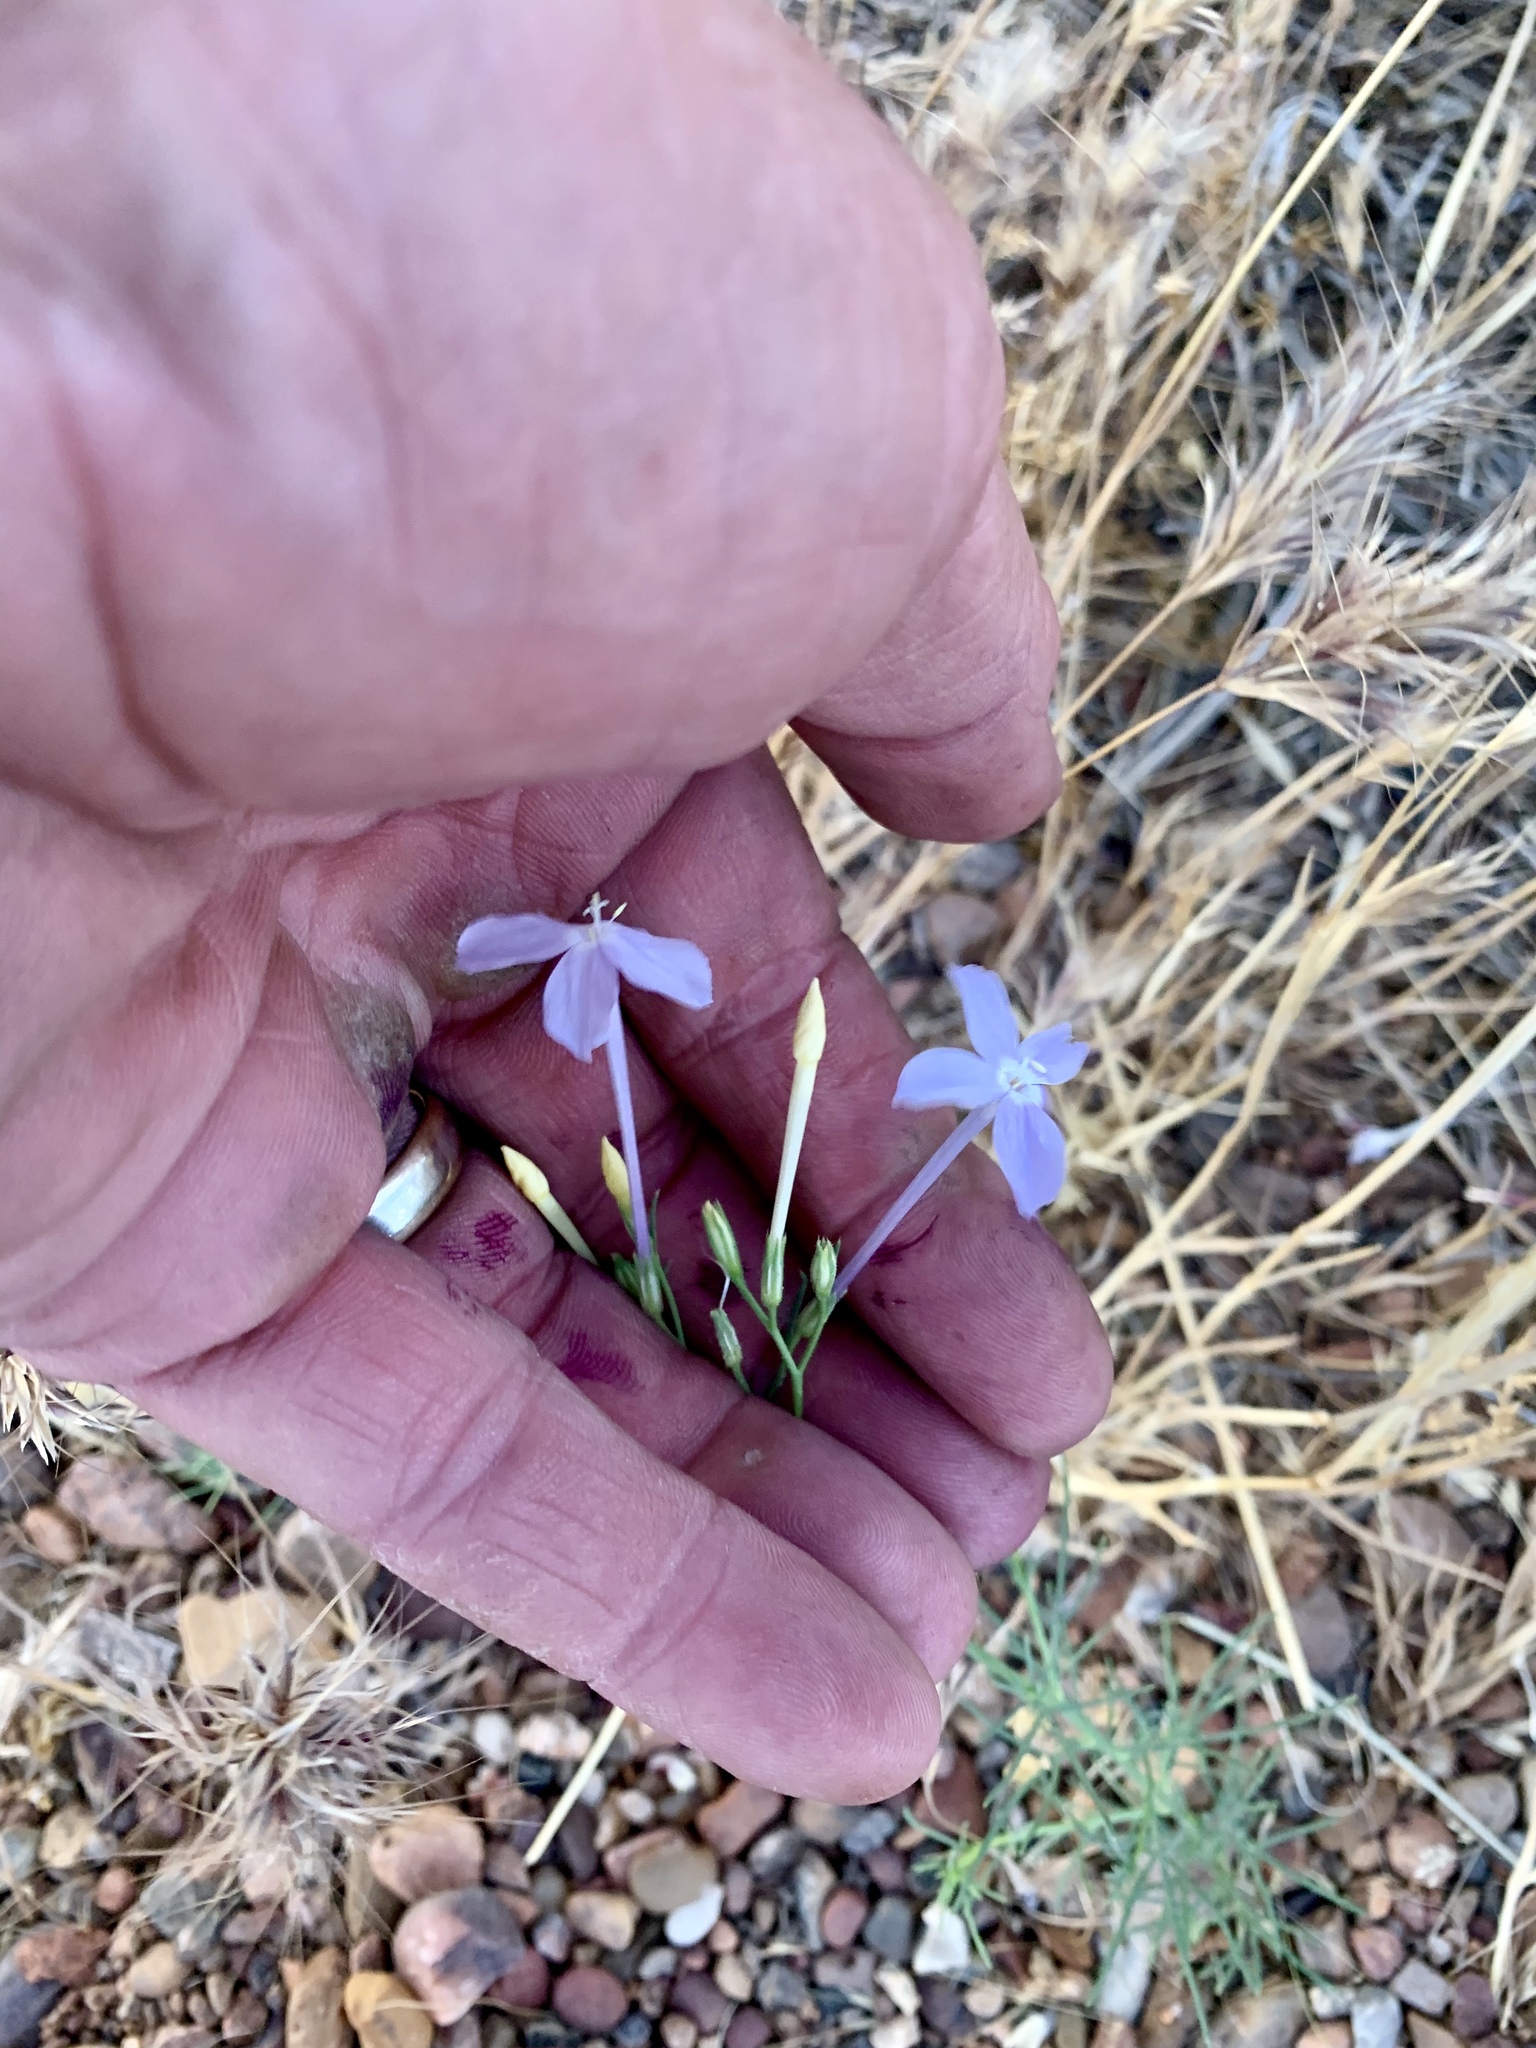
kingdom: Plantae
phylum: Tracheophyta
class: Magnoliopsida
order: Ericales
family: Polemoniaceae
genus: Ipomopsis
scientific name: Ipomopsis longiflora
